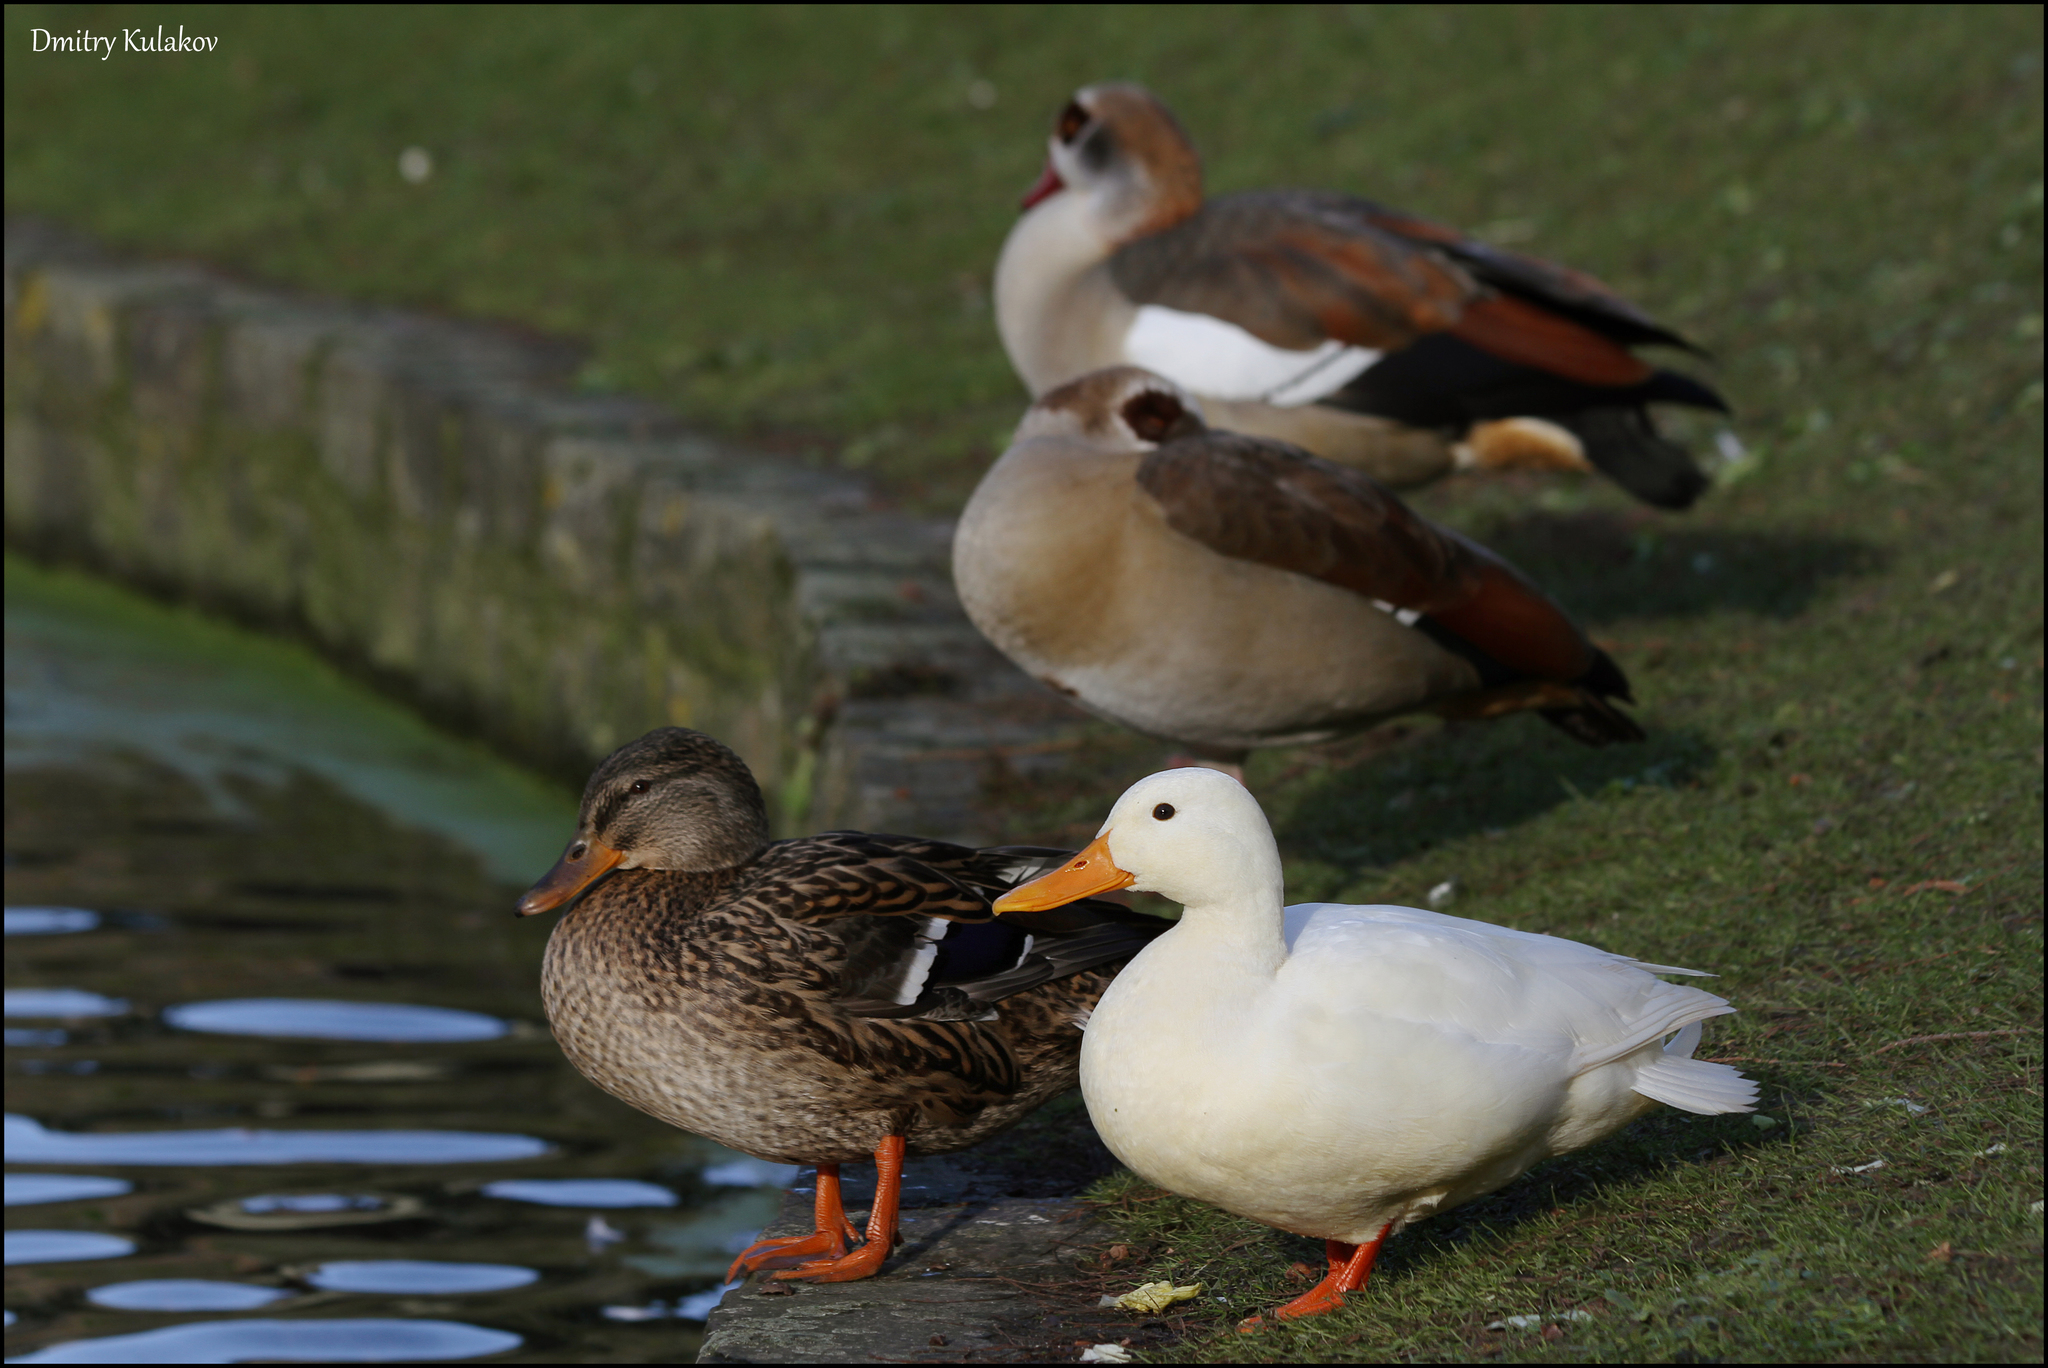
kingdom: Animalia
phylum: Chordata
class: Aves
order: Anseriformes
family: Anatidae
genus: Anas
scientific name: Anas platyrhynchos
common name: Mallard
